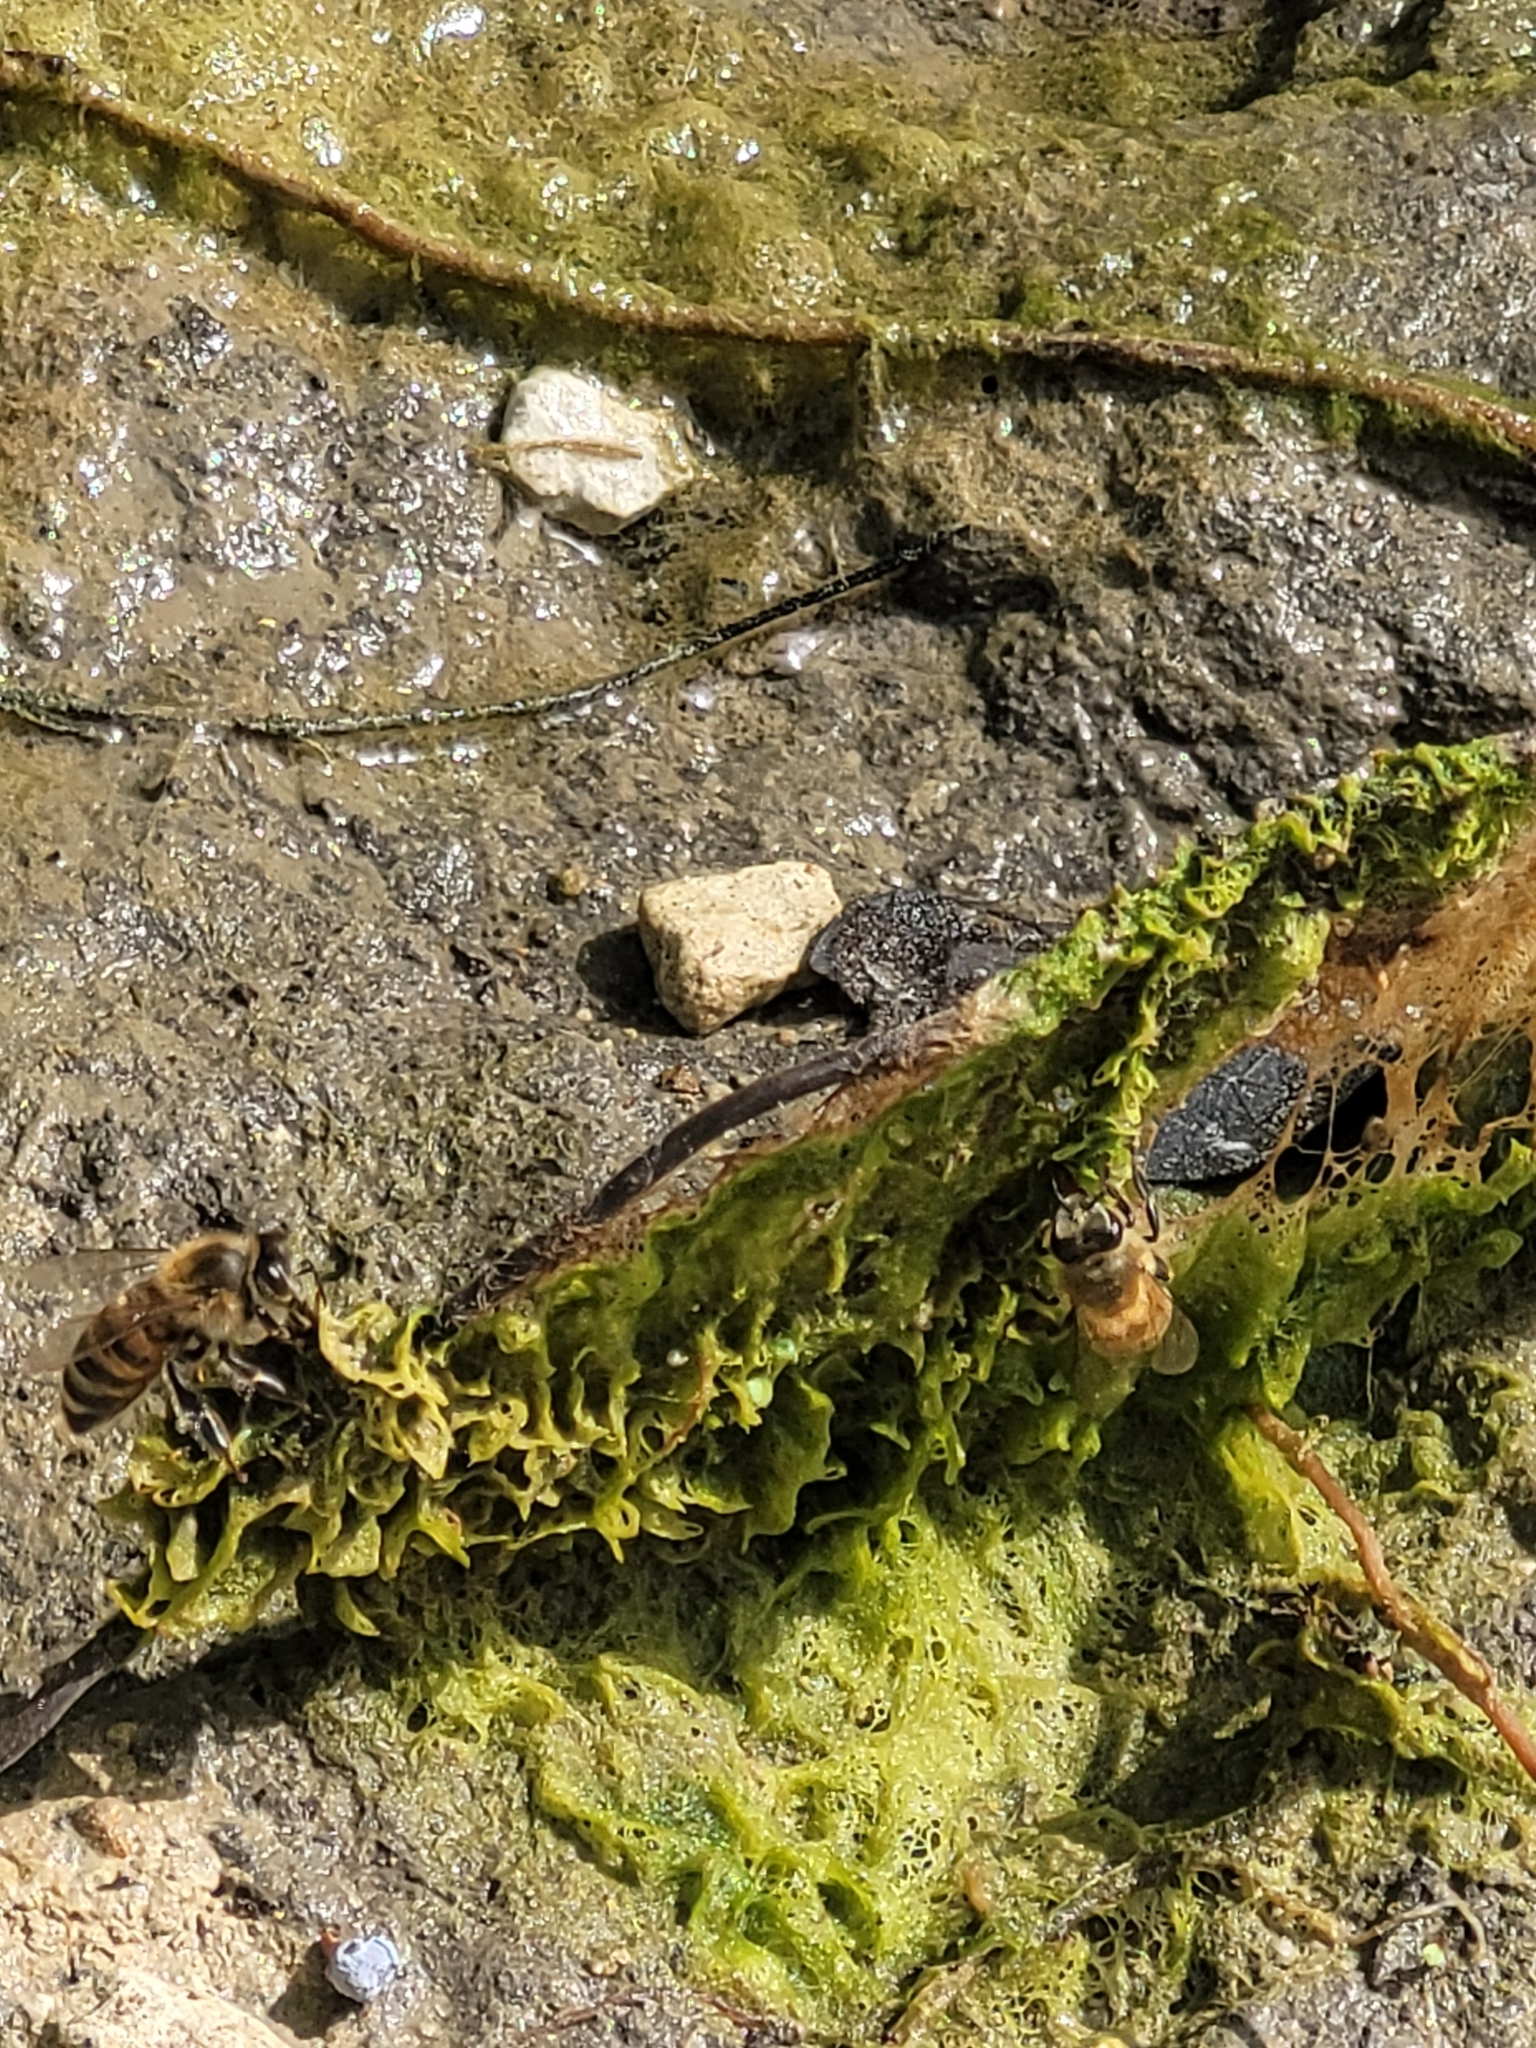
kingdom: Animalia
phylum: Arthropoda
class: Insecta
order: Hymenoptera
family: Apidae
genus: Apis
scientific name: Apis mellifera
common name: Honey bee
